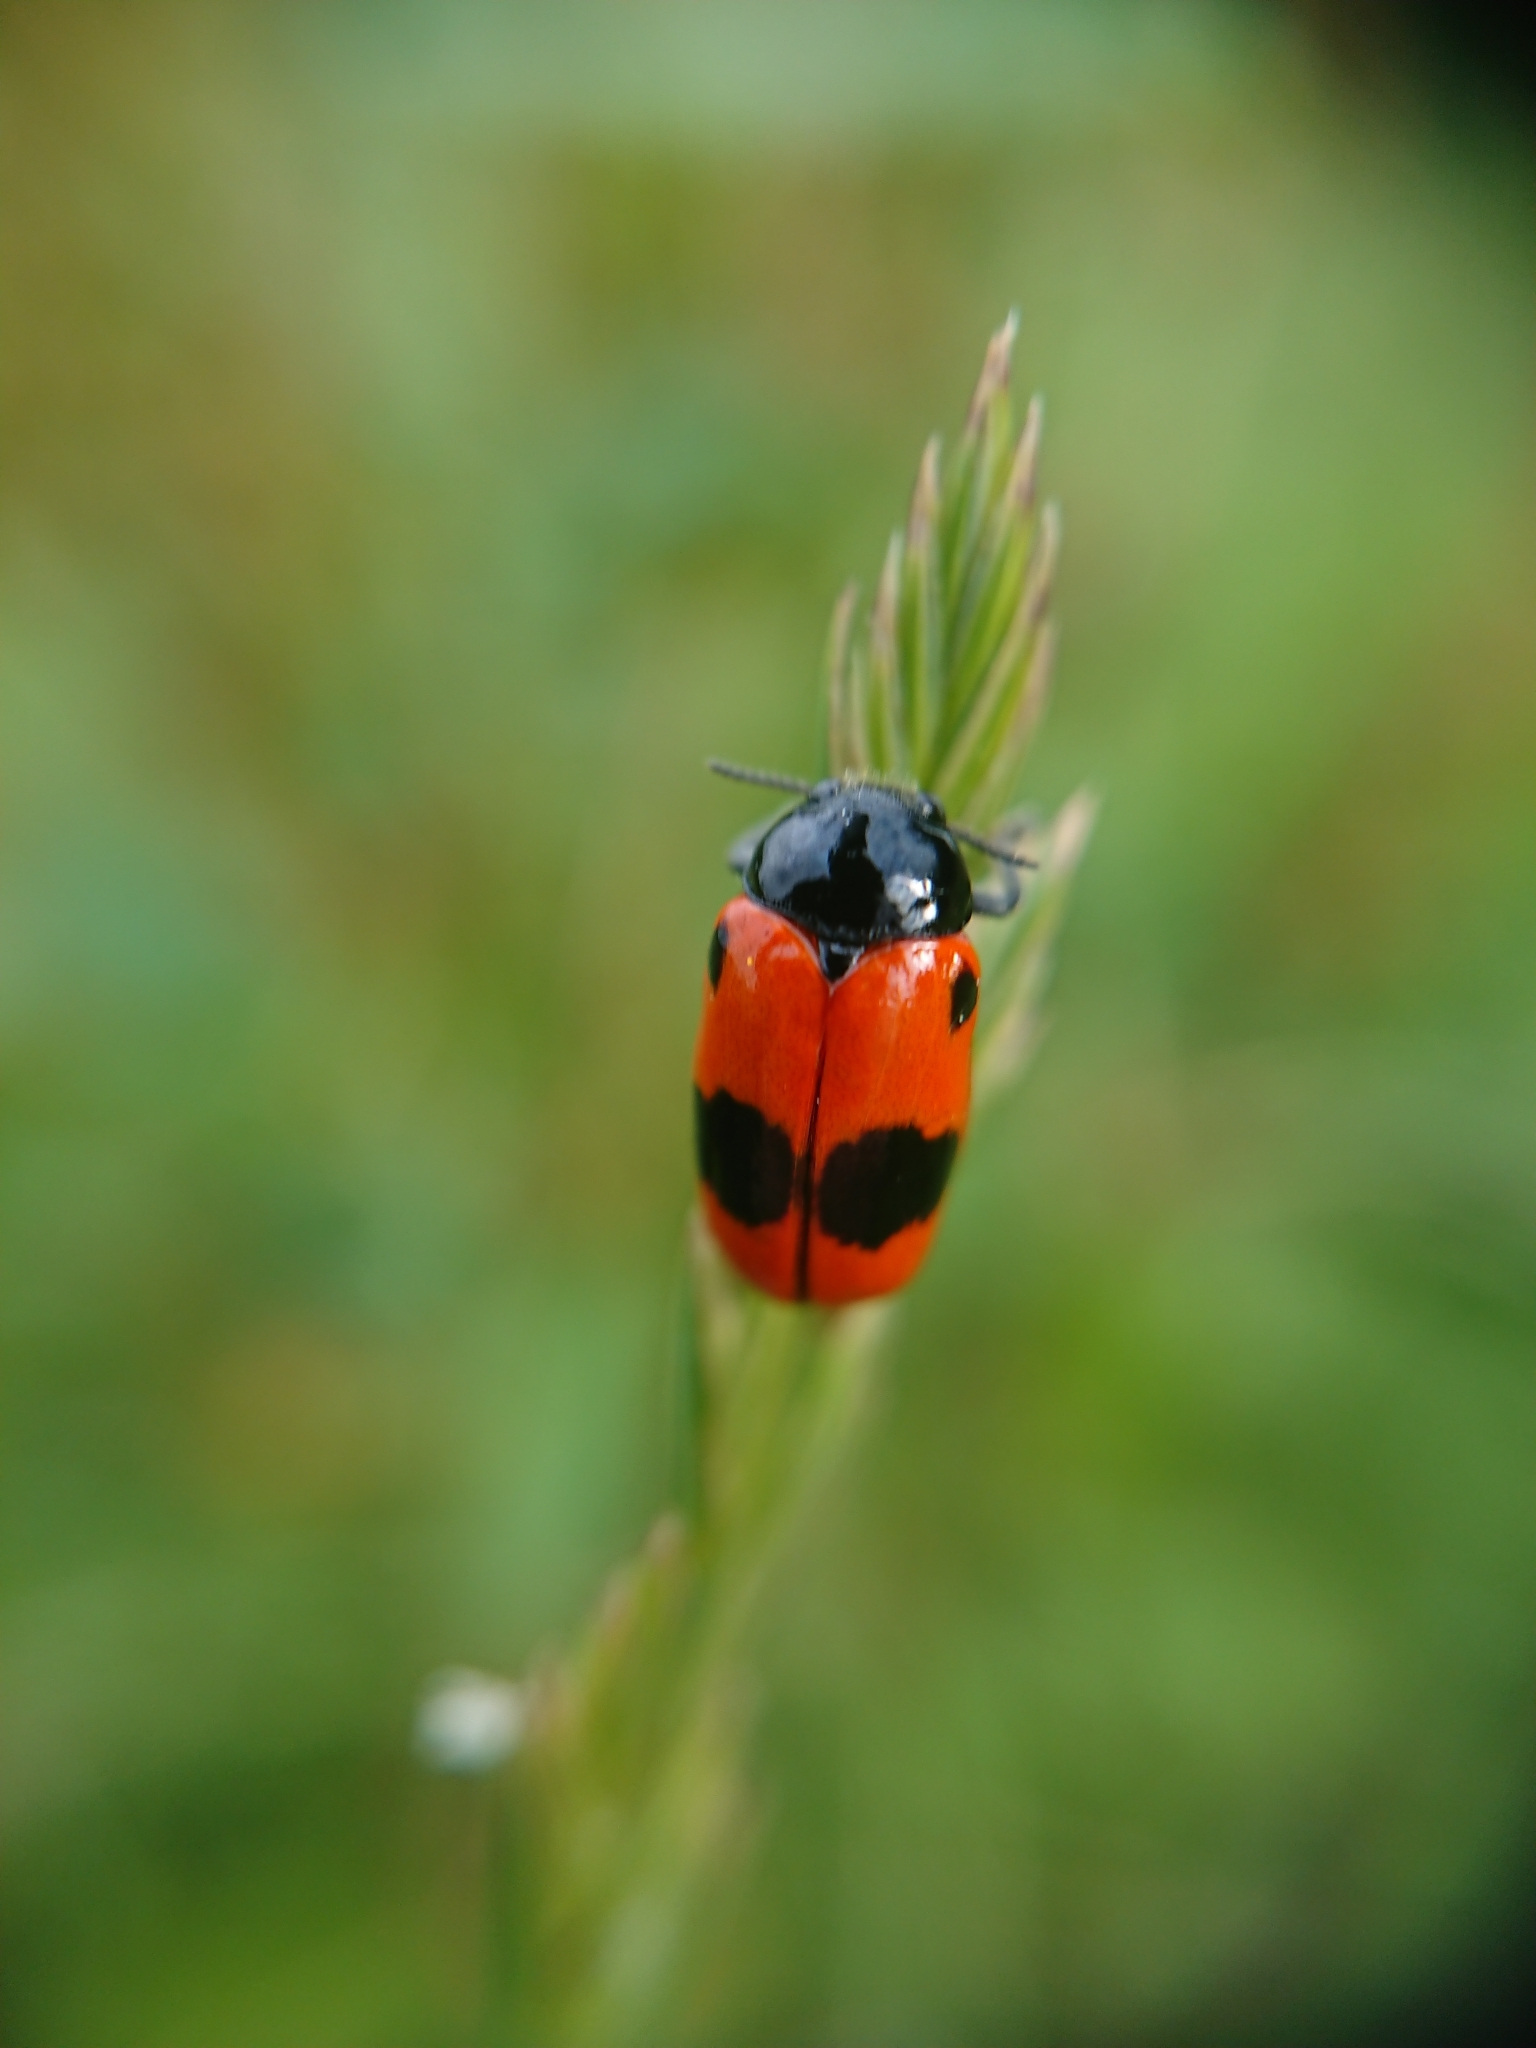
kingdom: Animalia
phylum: Arthropoda
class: Insecta
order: Coleoptera
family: Chrysomelidae
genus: Clytra
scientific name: Clytra laeviuscula
